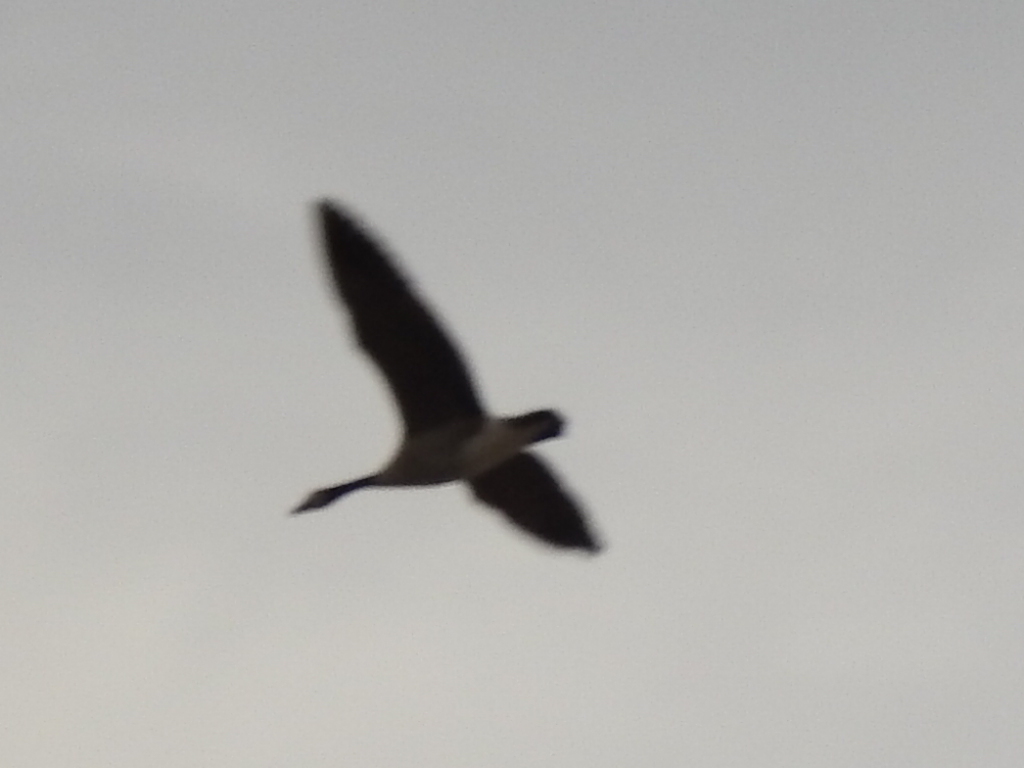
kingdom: Animalia
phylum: Chordata
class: Aves
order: Anseriformes
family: Anatidae
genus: Branta
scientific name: Branta canadensis
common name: Canada goose
